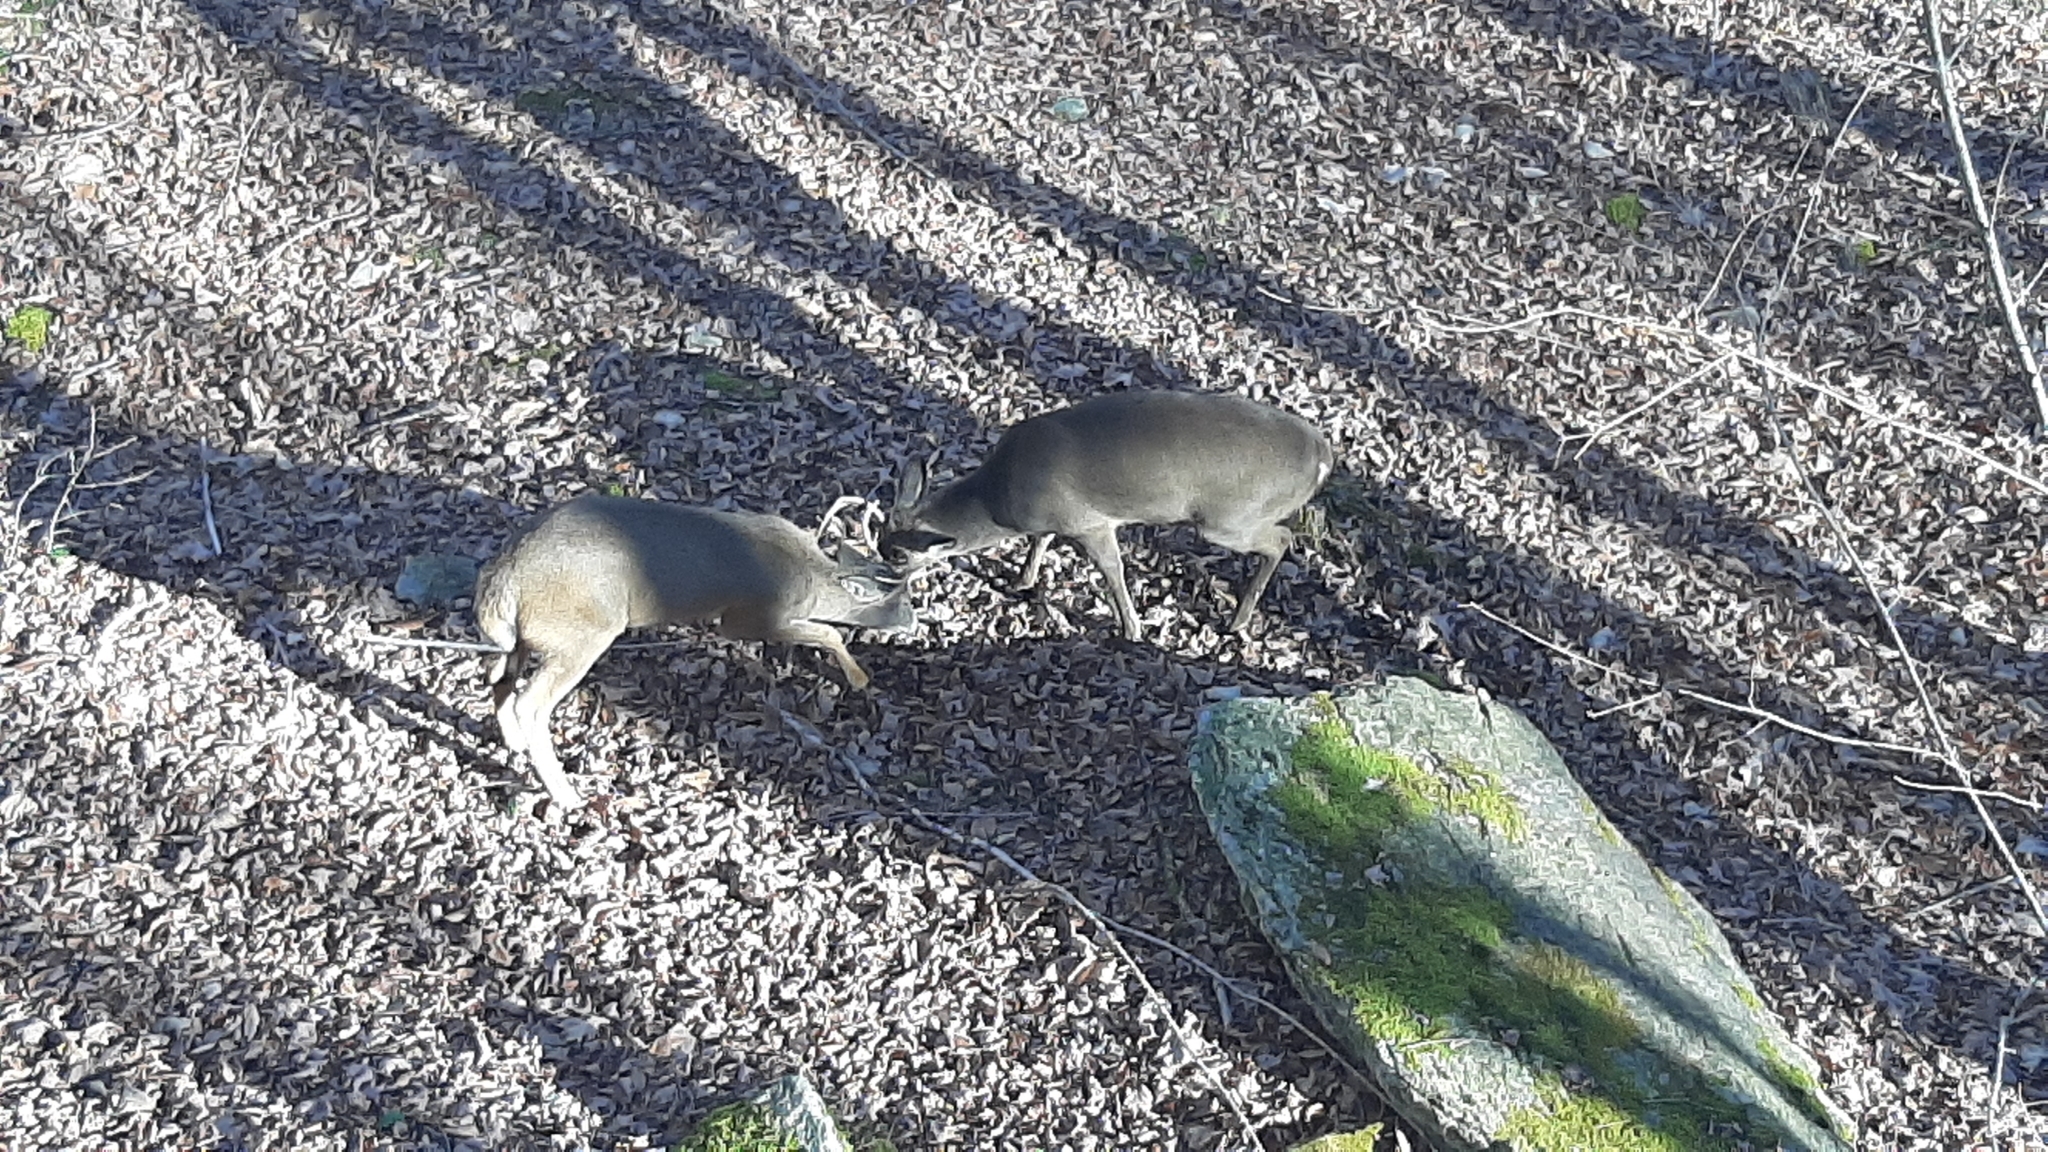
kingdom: Animalia
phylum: Chordata
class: Mammalia
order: Artiodactyla
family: Cervidae
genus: Odocoileus
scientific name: Odocoileus virginianus
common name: White-tailed deer
